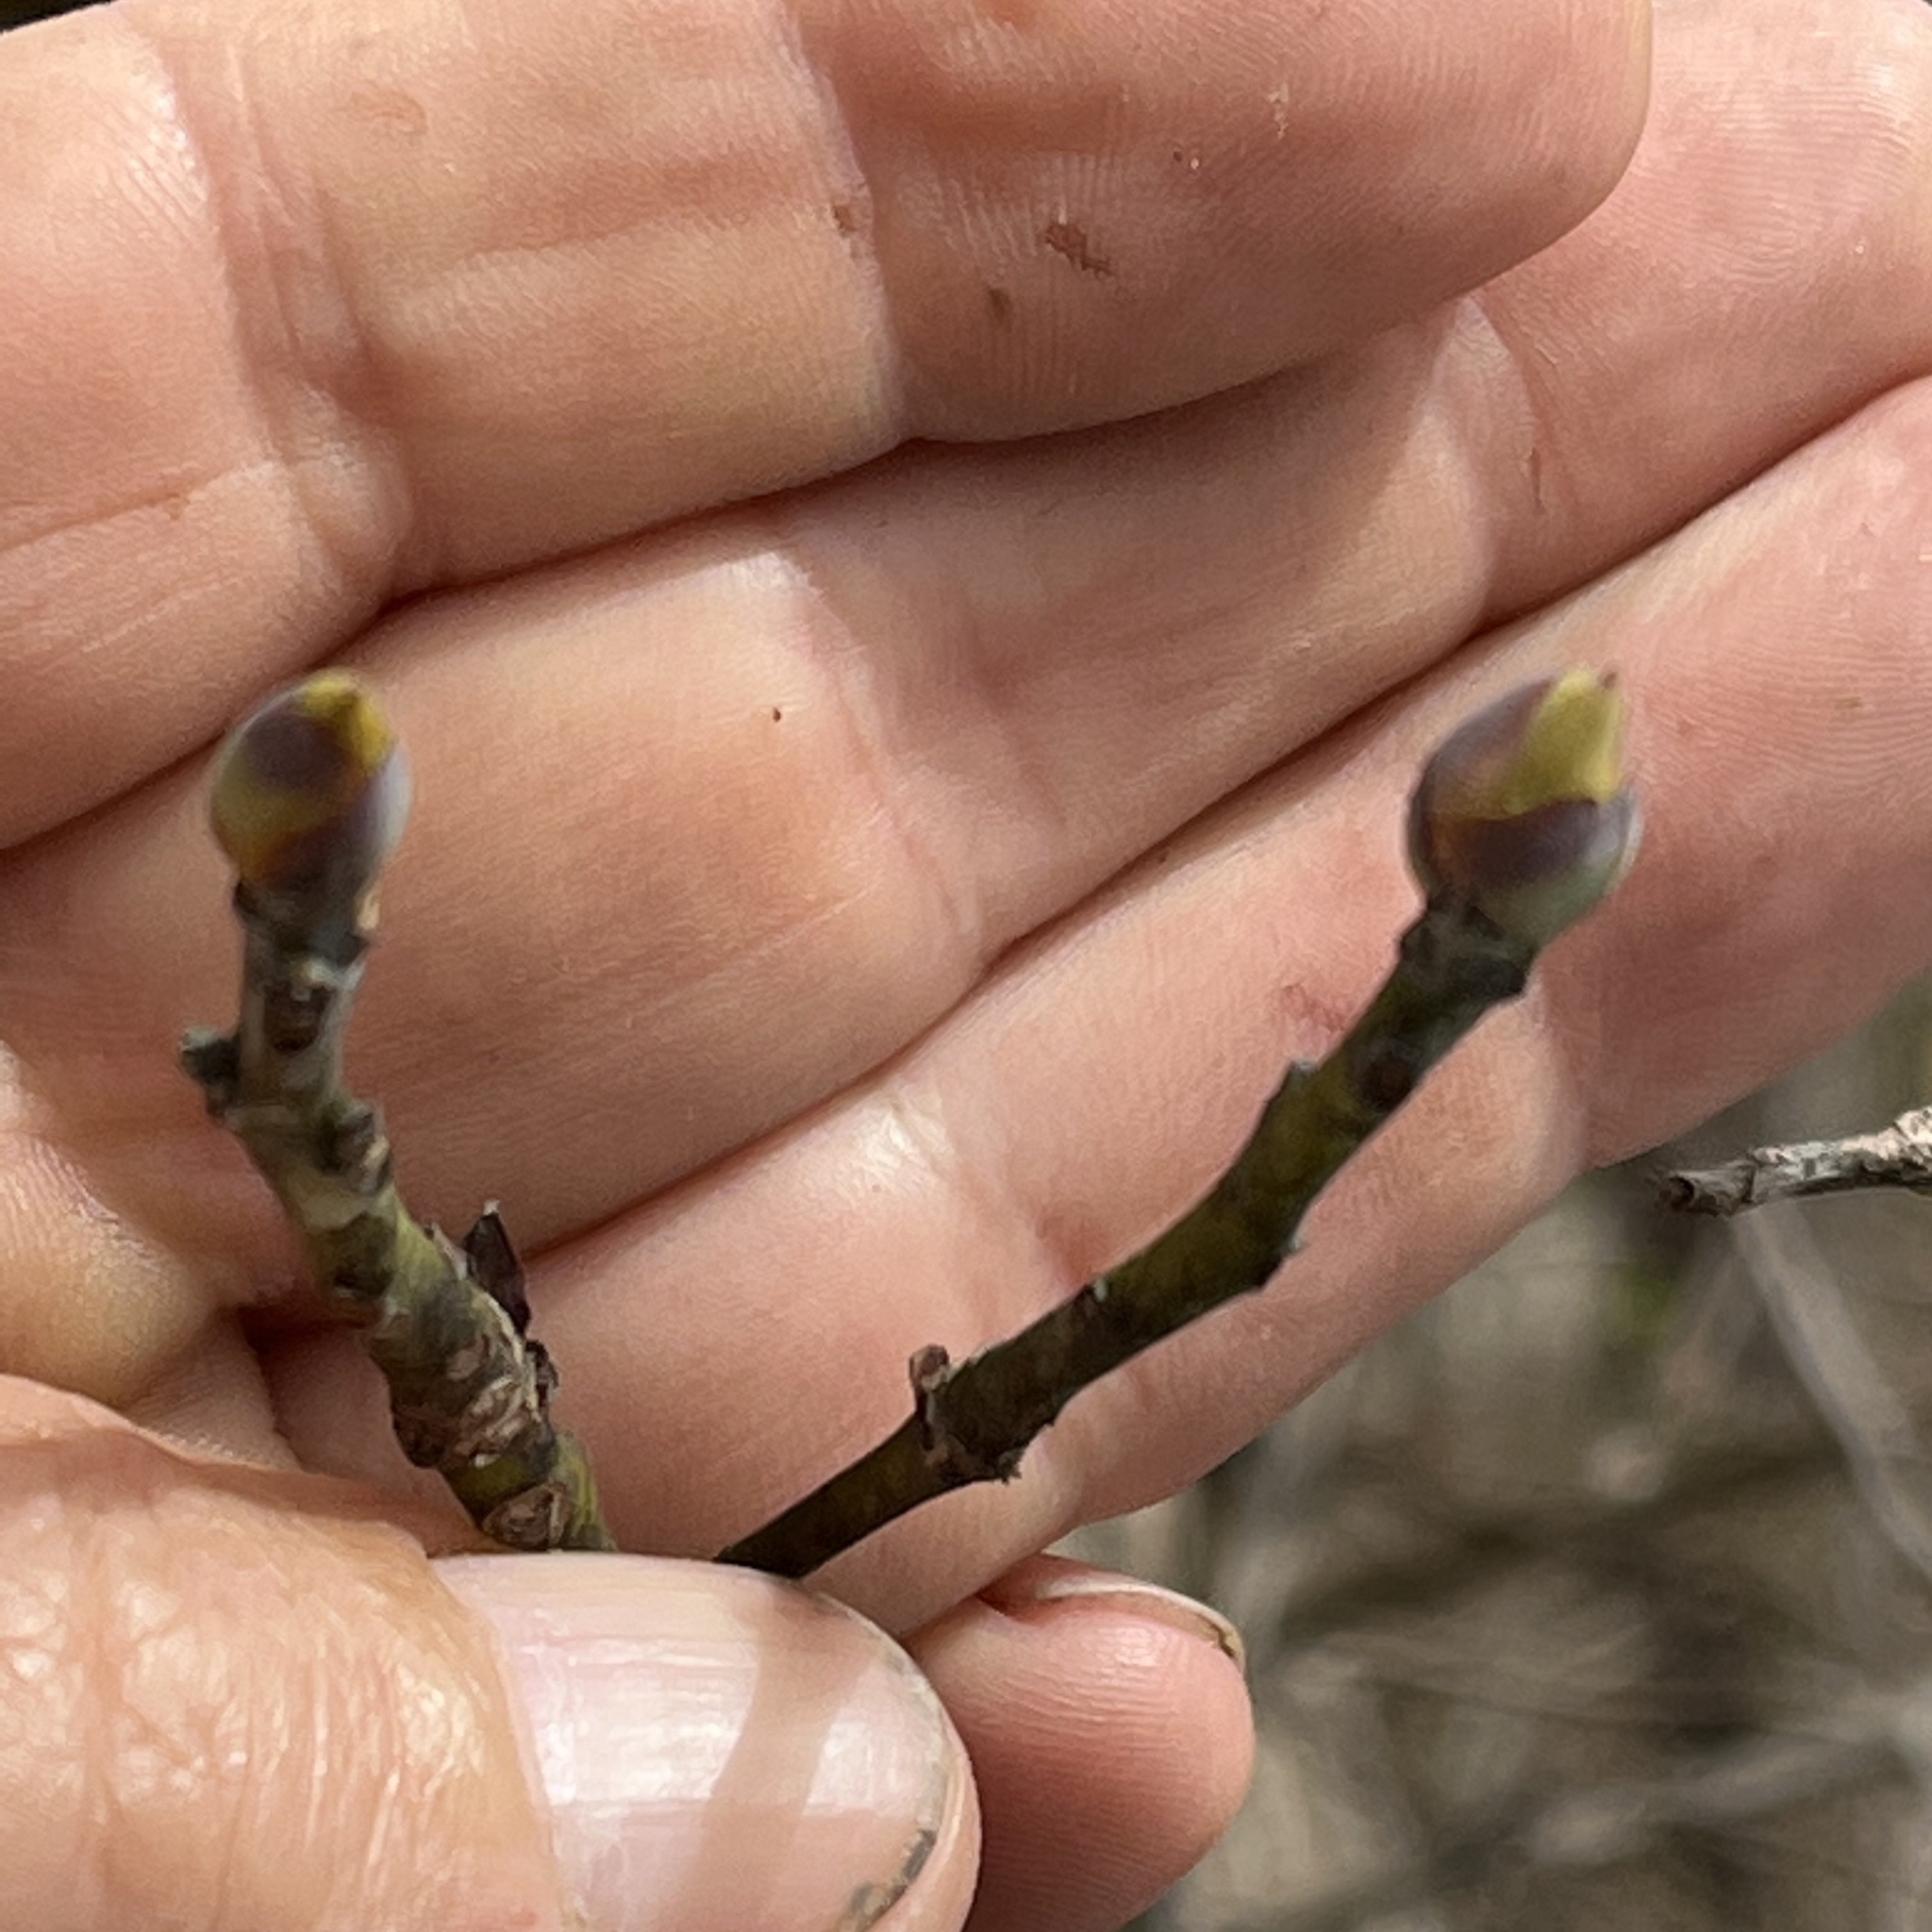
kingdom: Plantae
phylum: Tracheophyta
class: Magnoliopsida
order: Laurales
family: Lauraceae
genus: Sassafras
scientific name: Sassafras albidum
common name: Sassafras
